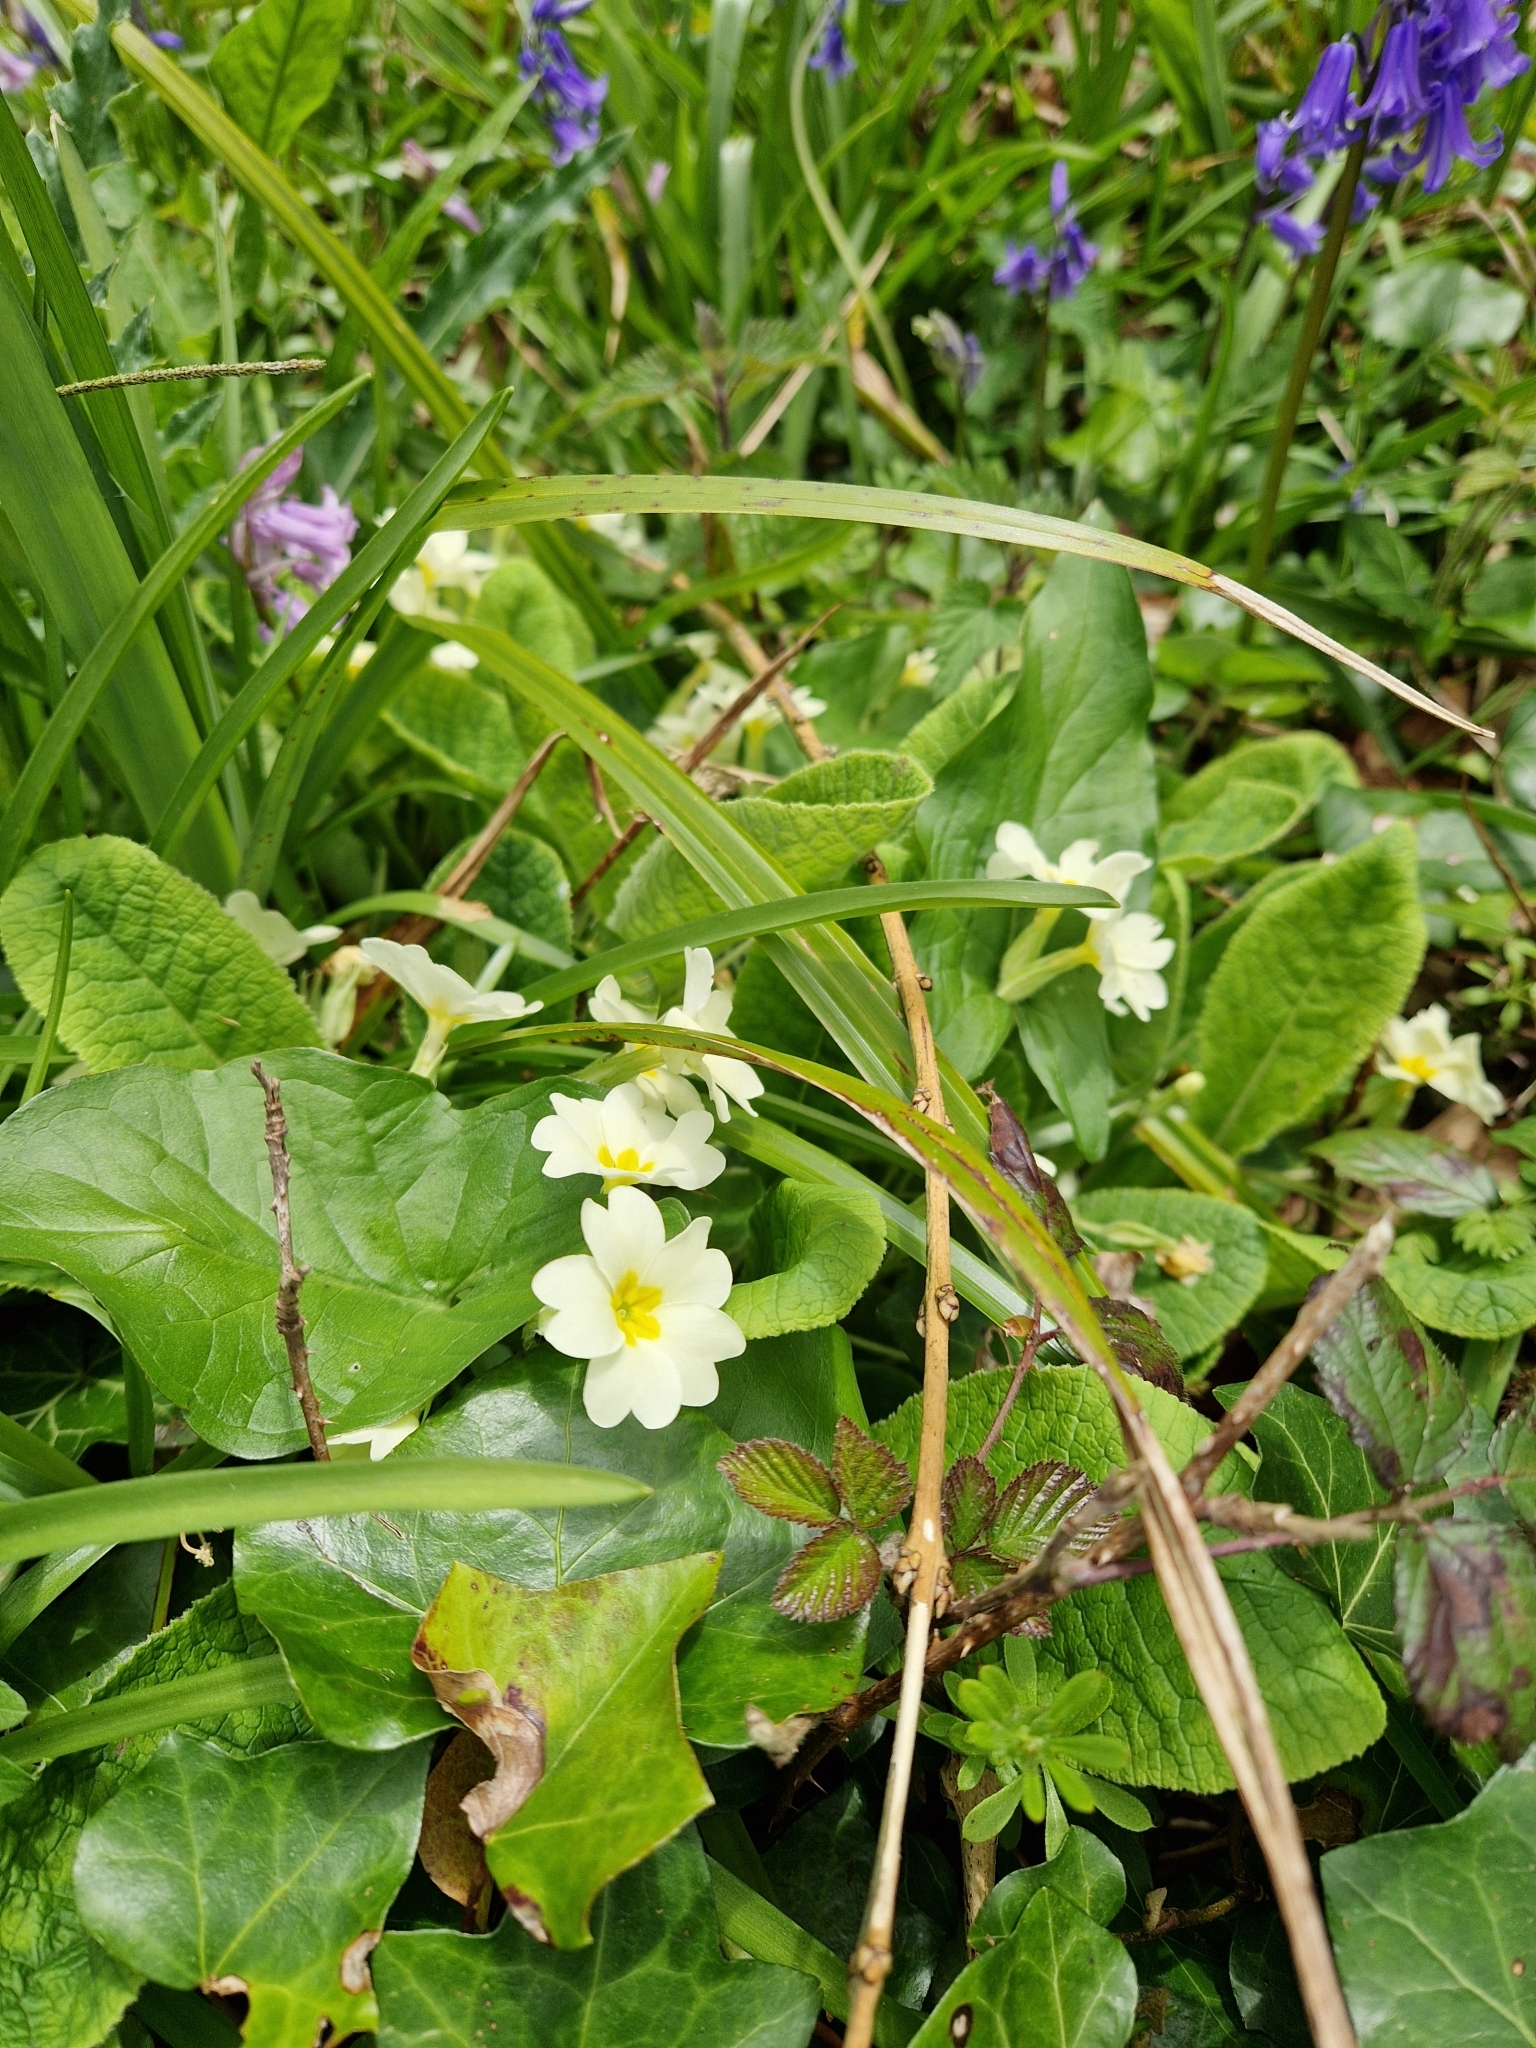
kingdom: Plantae
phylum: Tracheophyta
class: Magnoliopsida
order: Ericales
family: Primulaceae
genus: Primula
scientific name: Primula vulgaris
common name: Primrose
